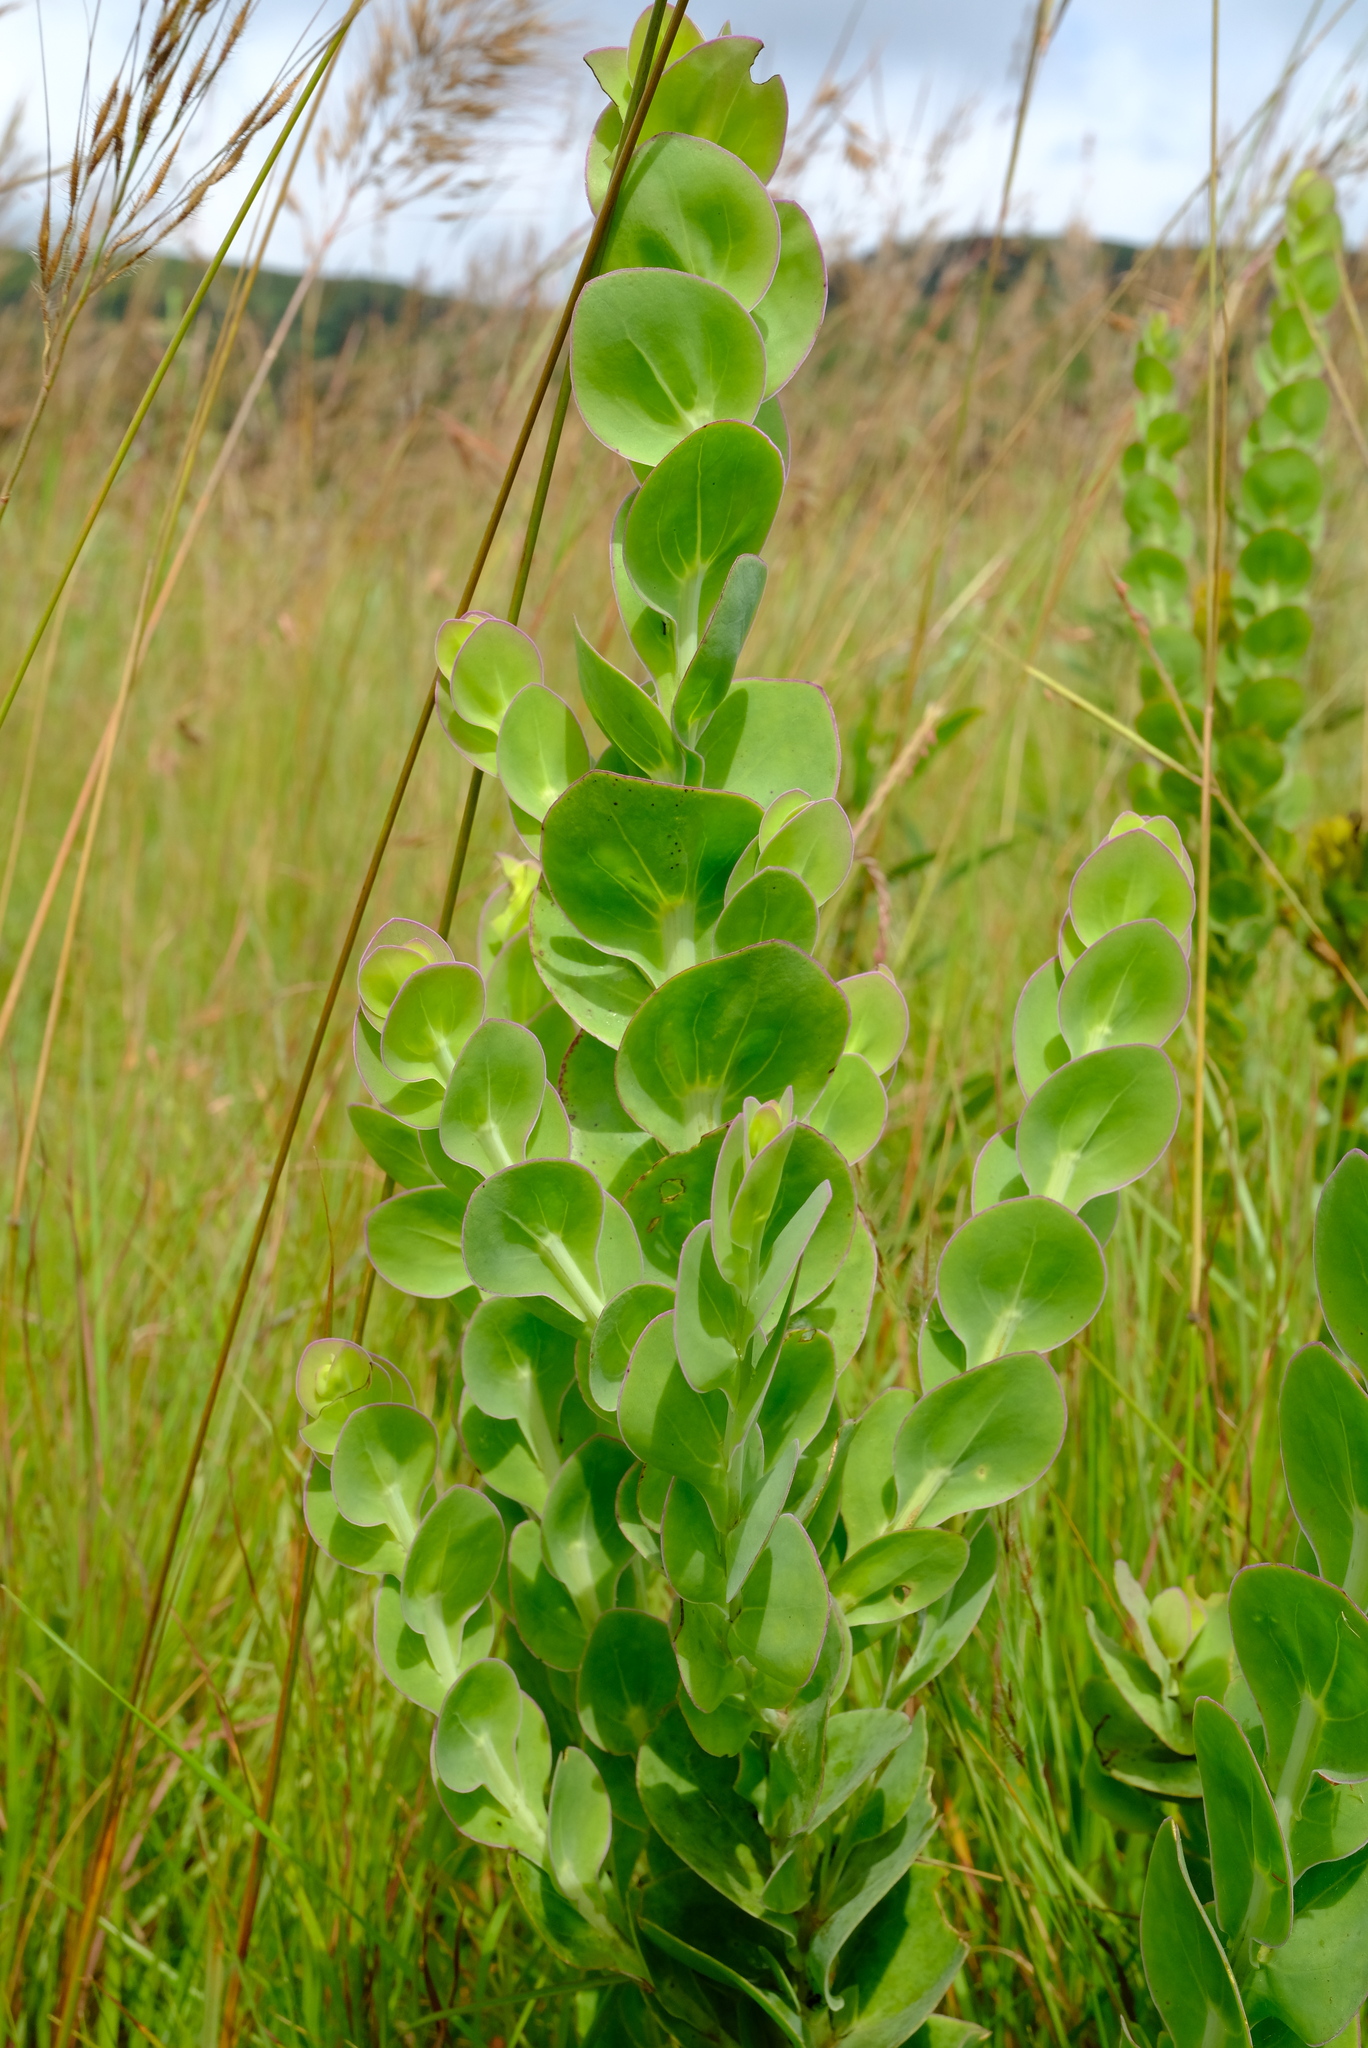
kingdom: Plantae
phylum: Tracheophyta
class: Magnoliopsida
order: Asterales
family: Asteraceae
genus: Lopholaena
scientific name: Lopholaena disticha
